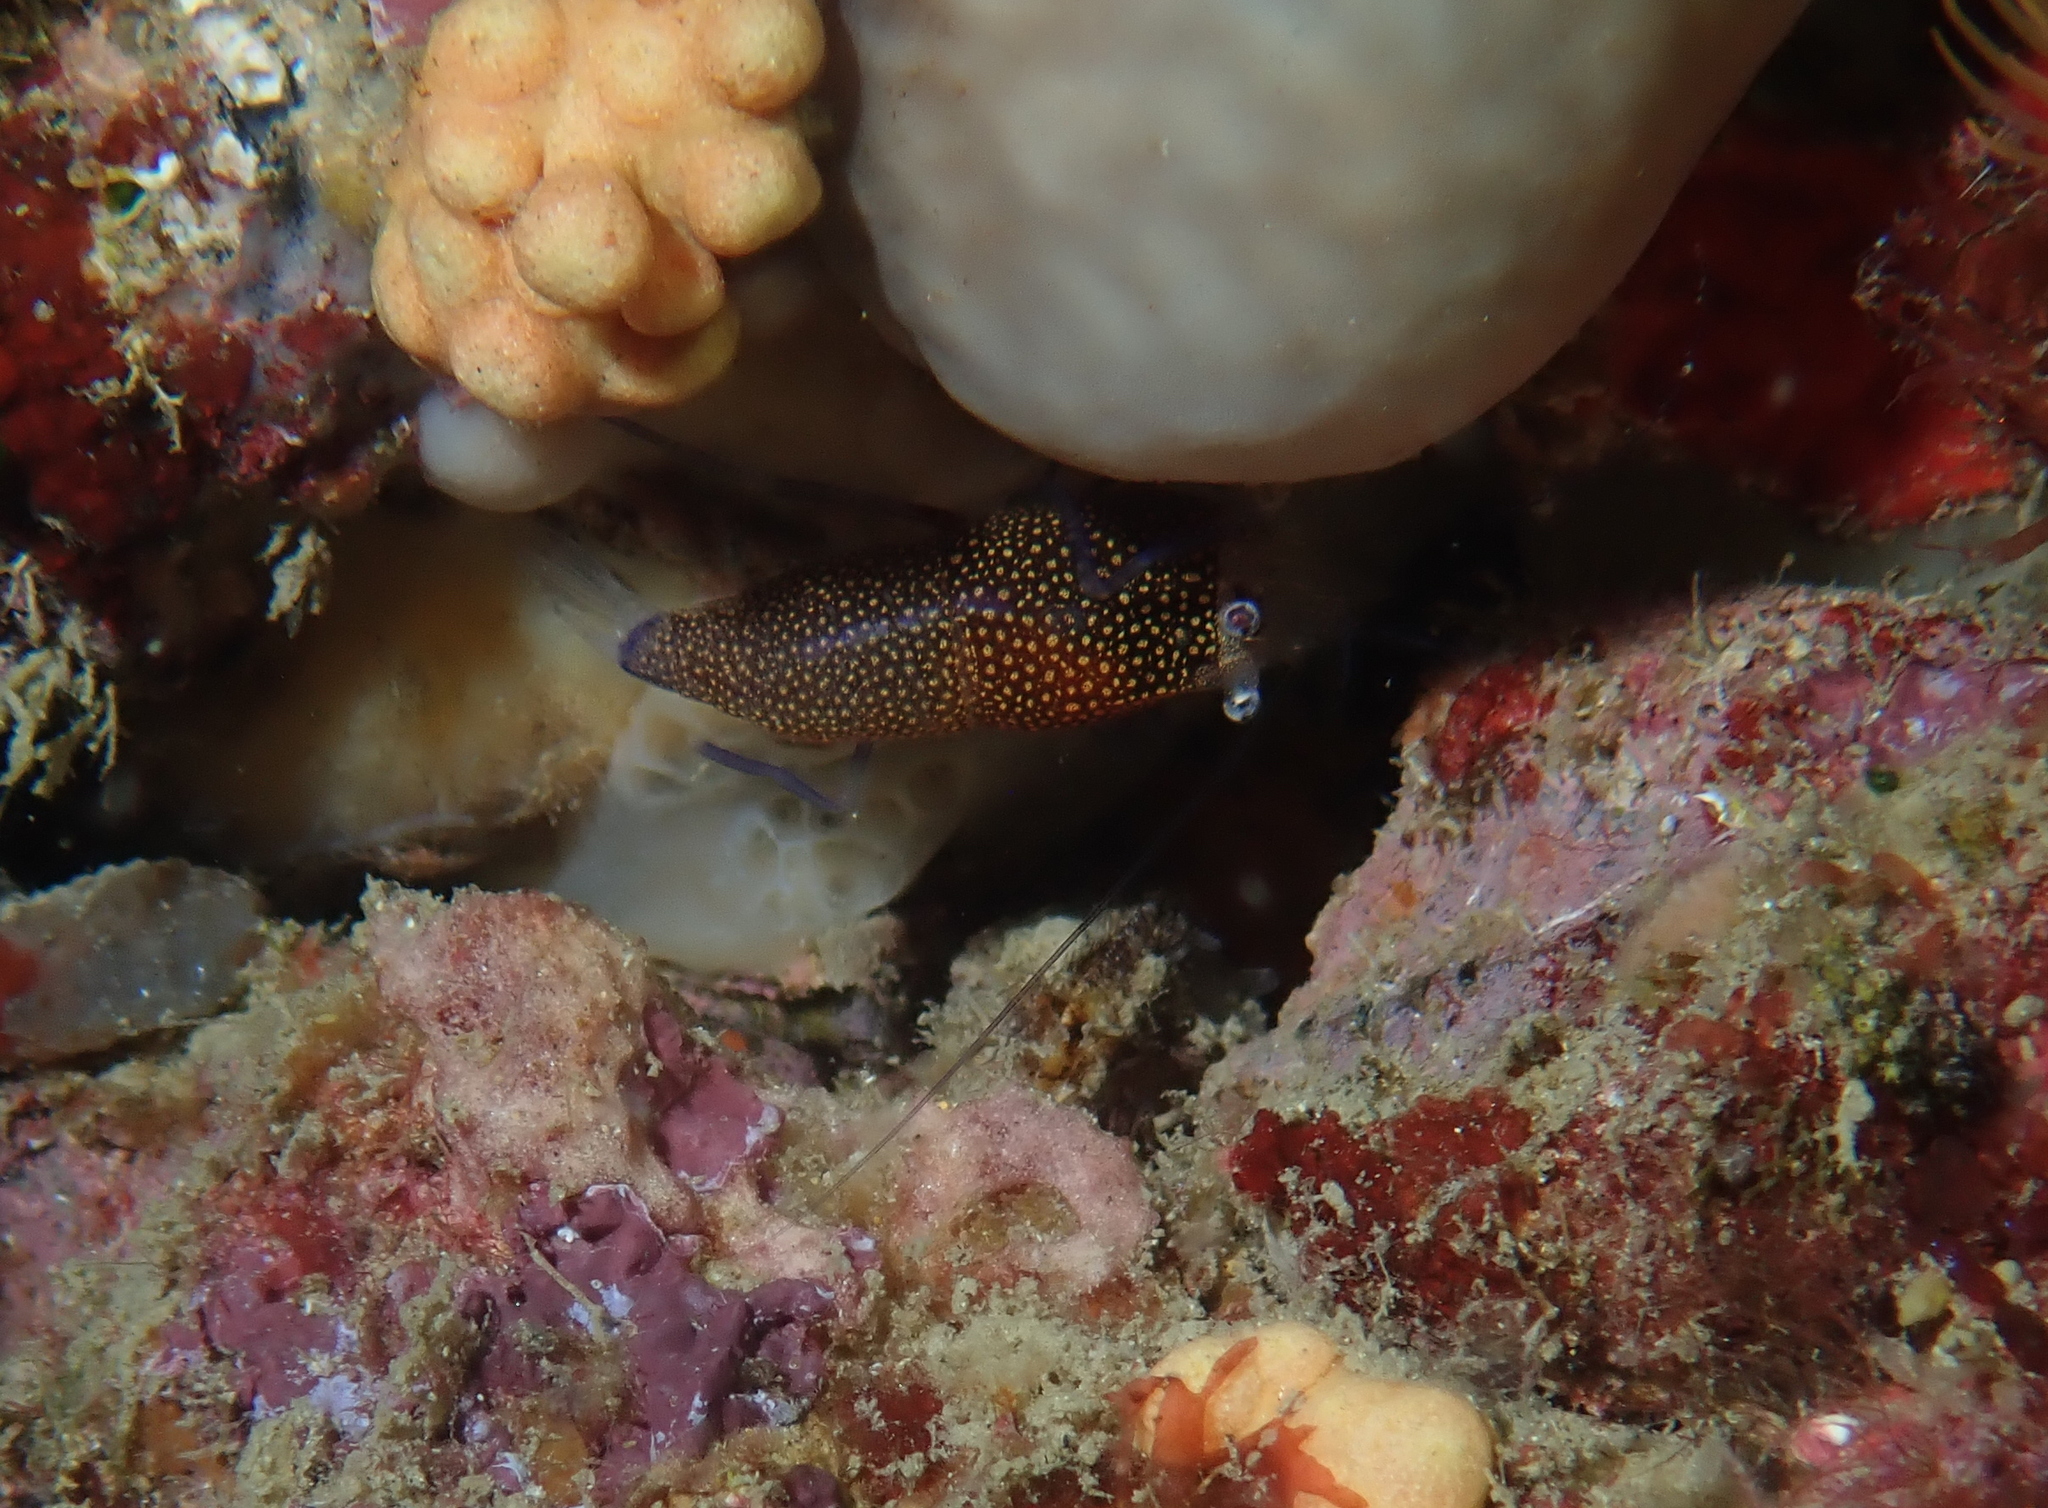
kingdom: Animalia
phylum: Arthropoda
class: Malacostraca
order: Decapoda
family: Palaemonidae
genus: Gnathophyllum
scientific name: Gnathophyllum elegans
